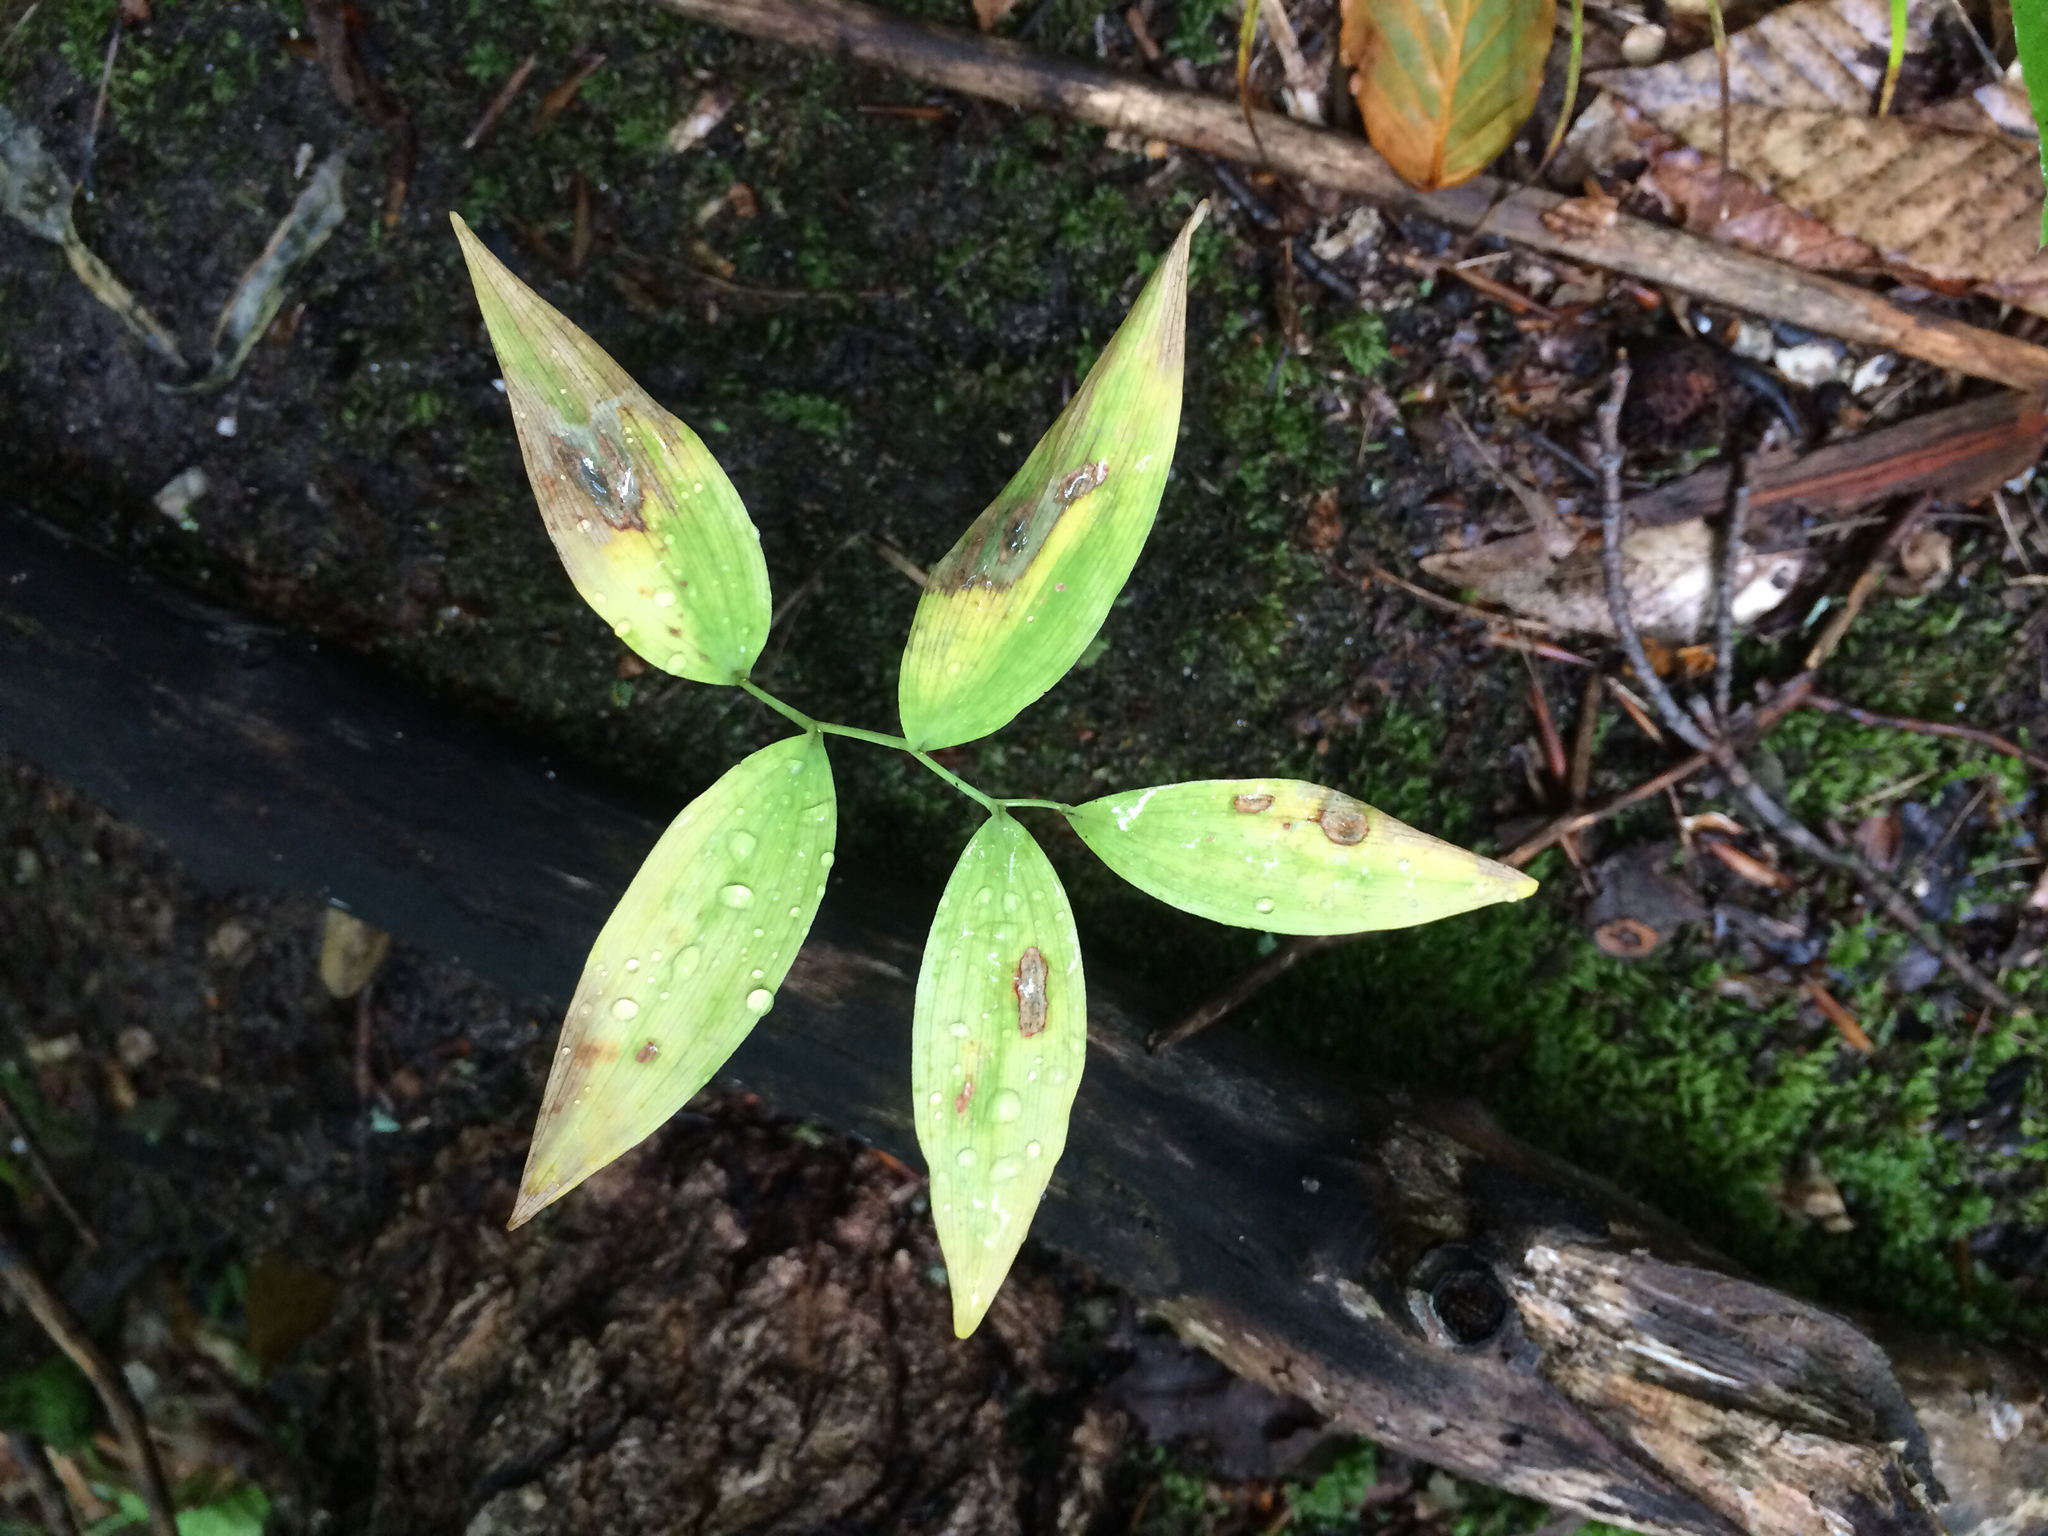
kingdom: Plantae
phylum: Tracheophyta
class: Liliopsida
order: Asparagales
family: Asparagaceae
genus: Polygonatum
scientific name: Polygonatum pubescens
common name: Downy solomon's seal
